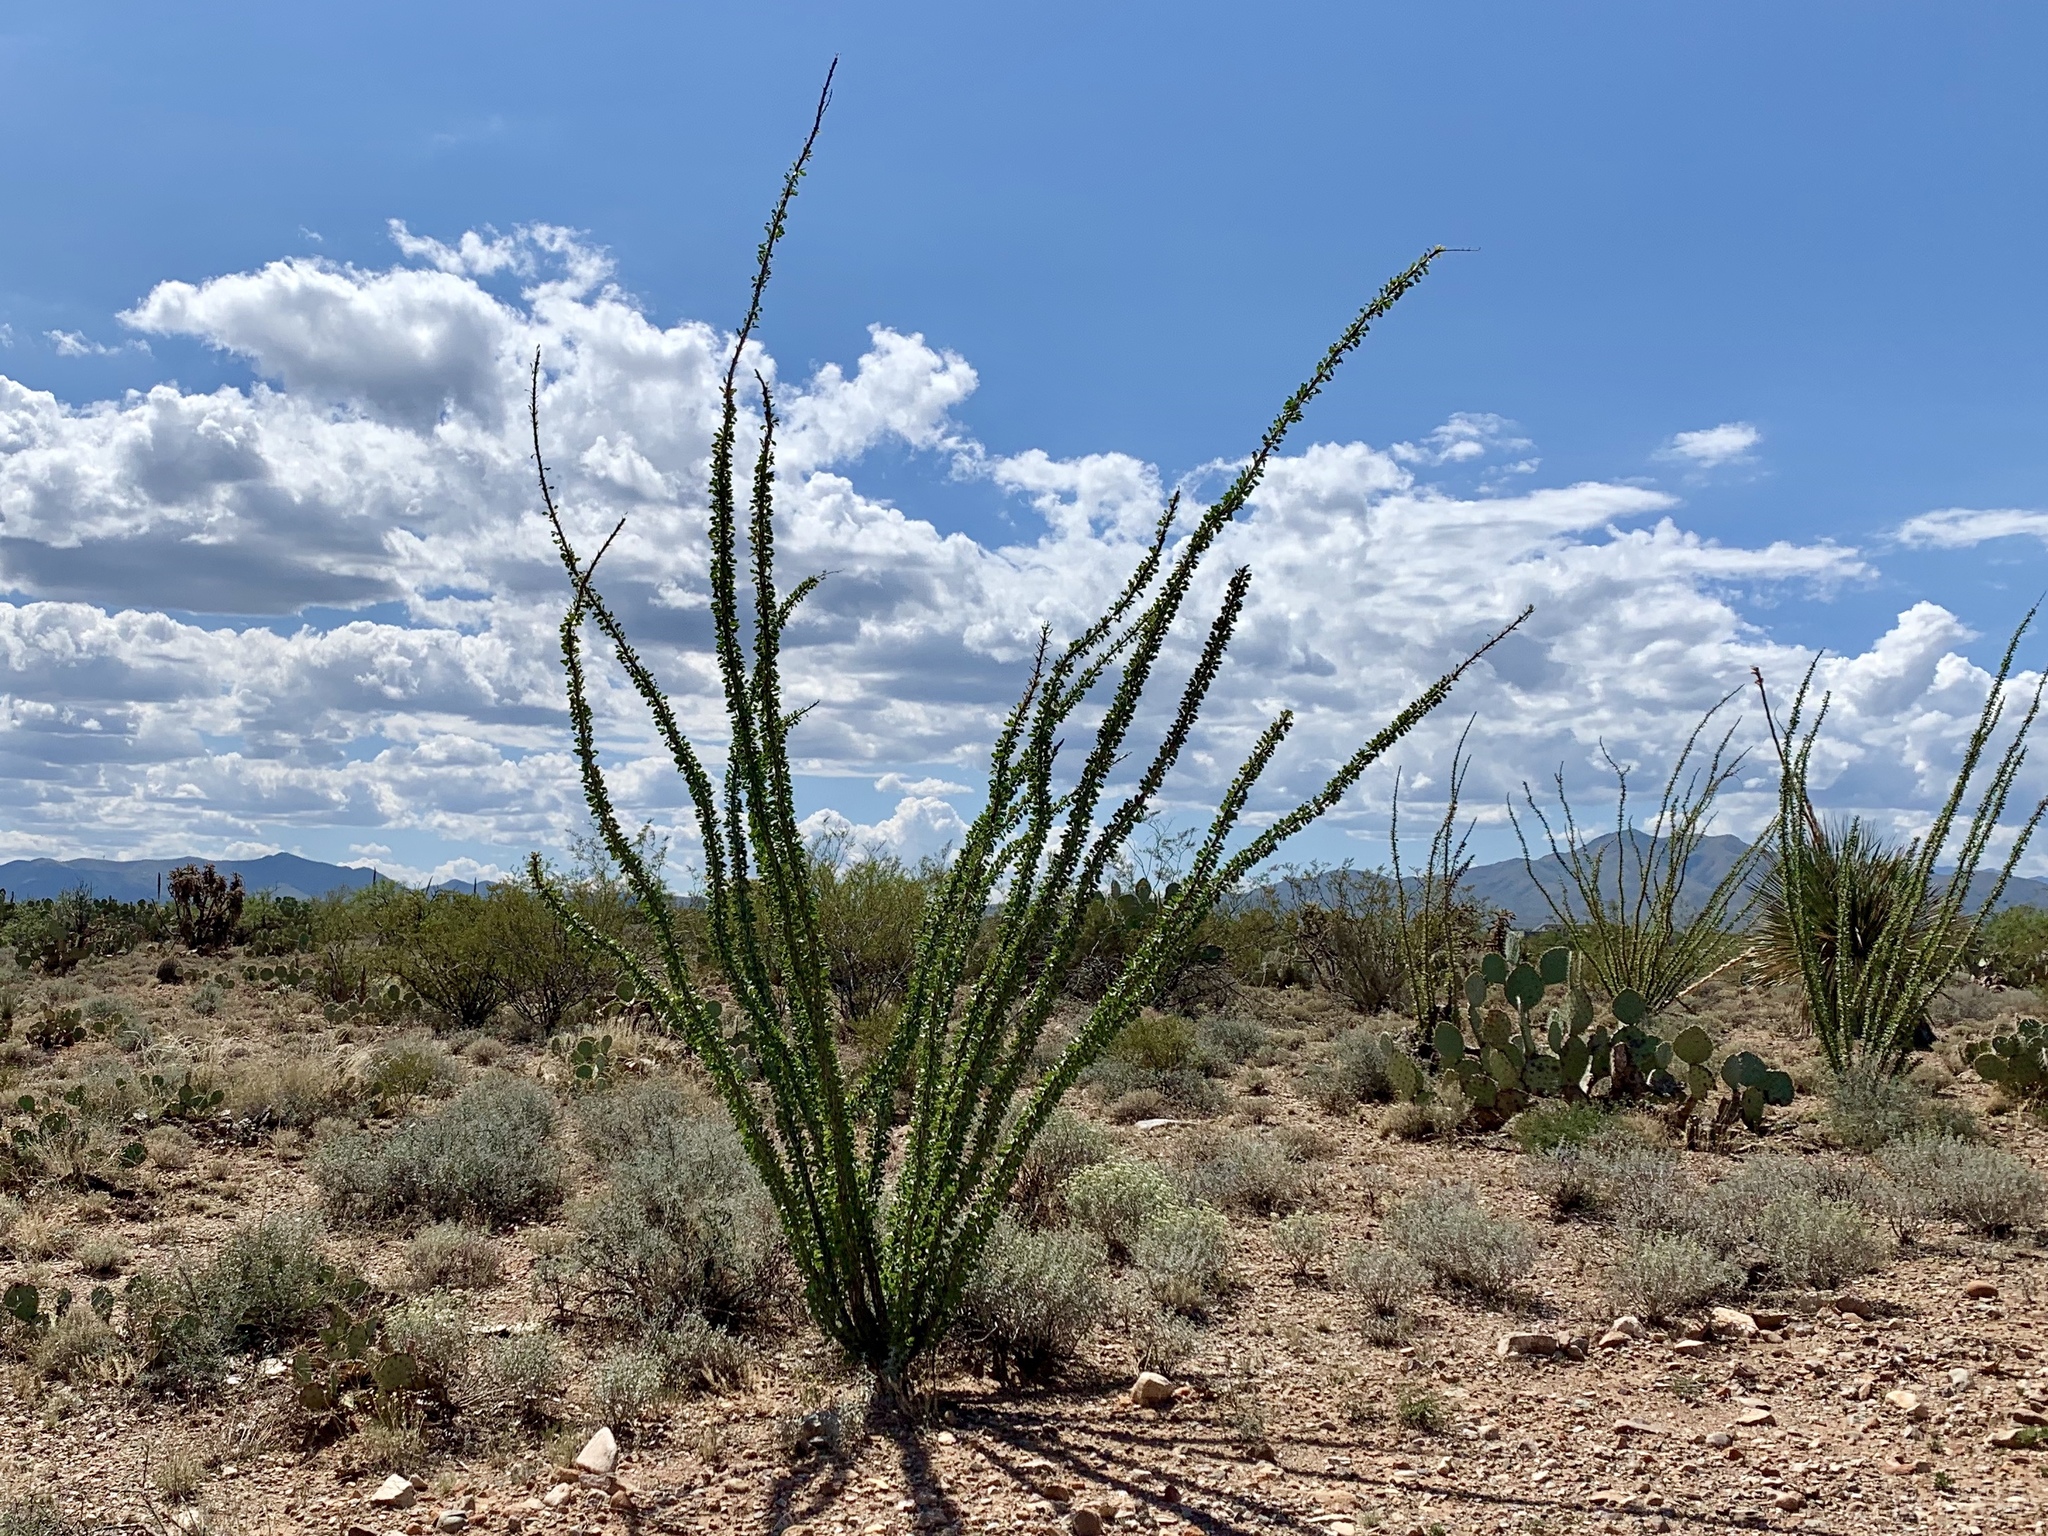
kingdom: Plantae
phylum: Tracheophyta
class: Magnoliopsida
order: Ericales
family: Fouquieriaceae
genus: Fouquieria
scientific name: Fouquieria splendens
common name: Vine-cactus
